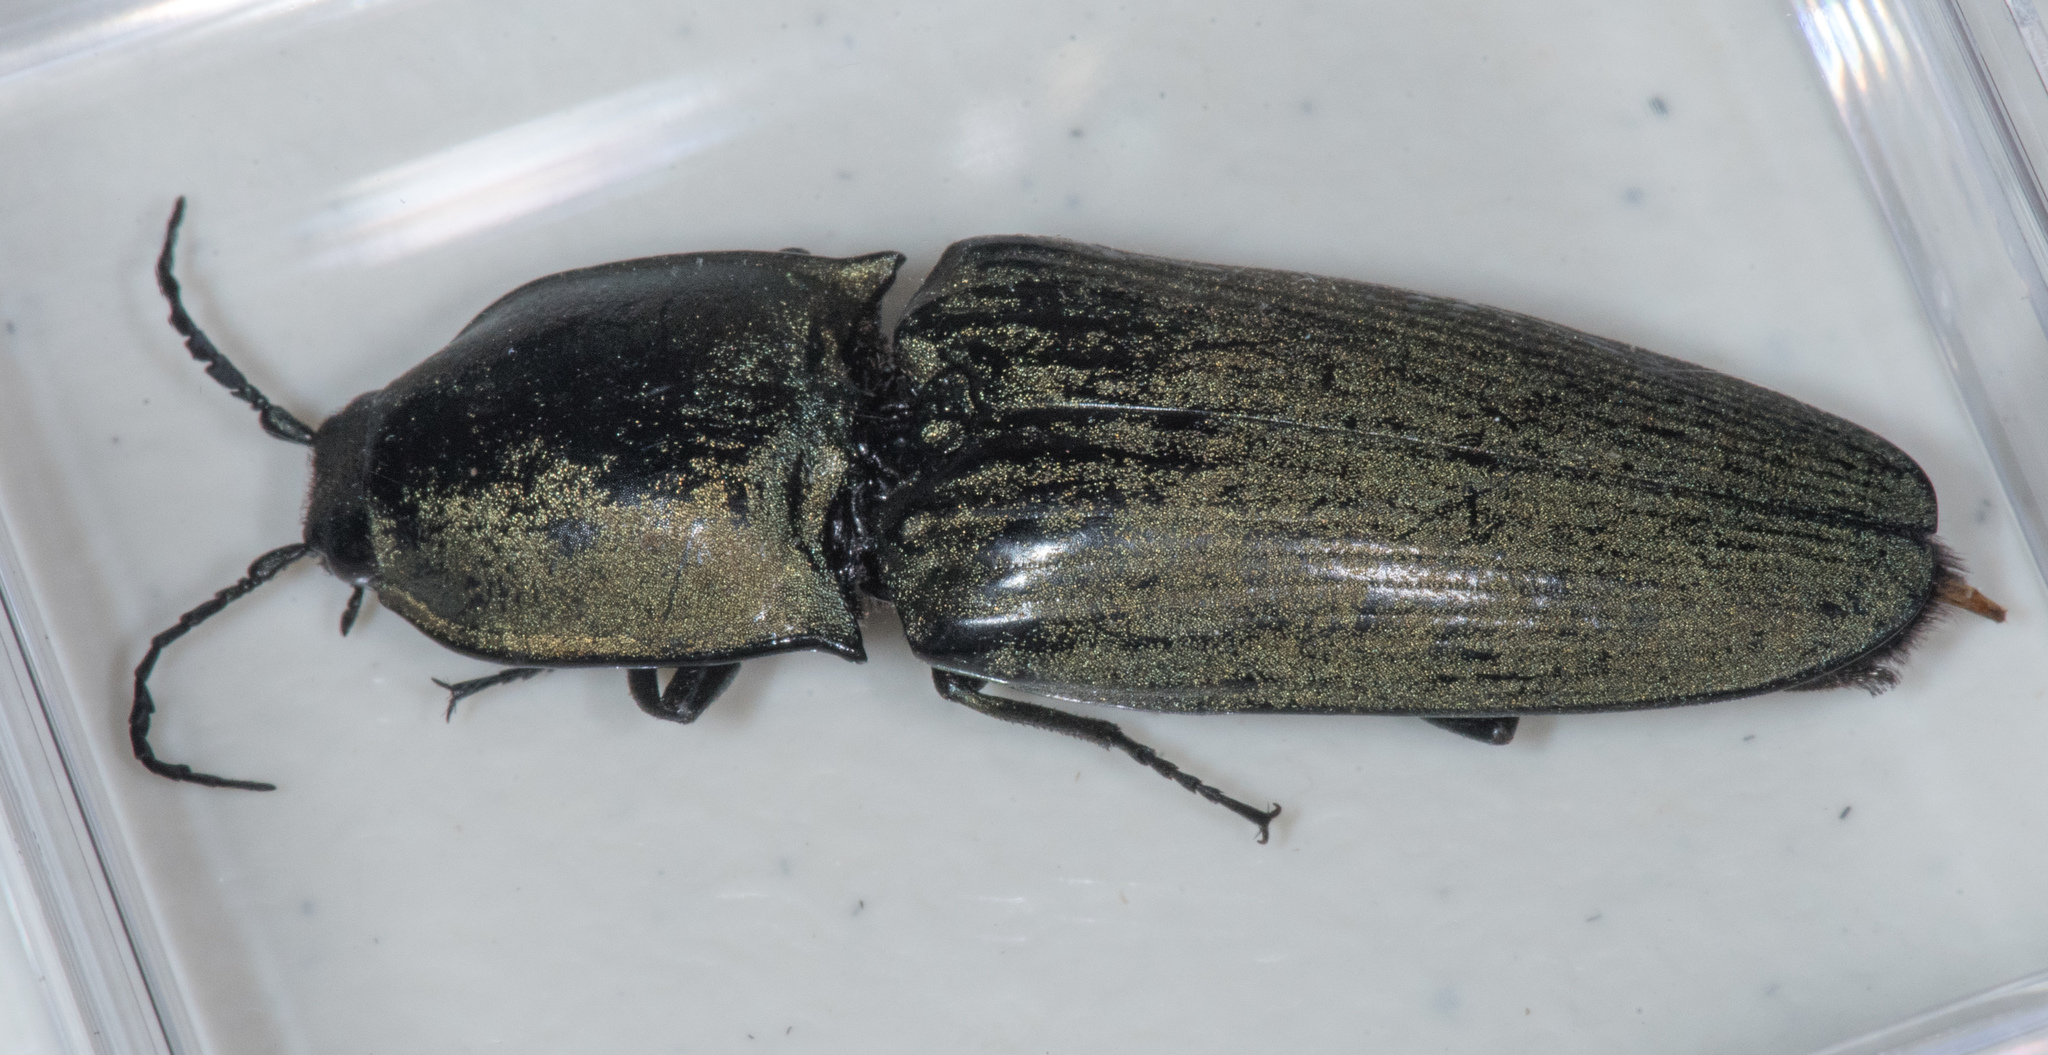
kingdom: Animalia
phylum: Arthropoda
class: Insecta
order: Coleoptera
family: Elateridae
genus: Chalcolepidius
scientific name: Chalcolepidius
